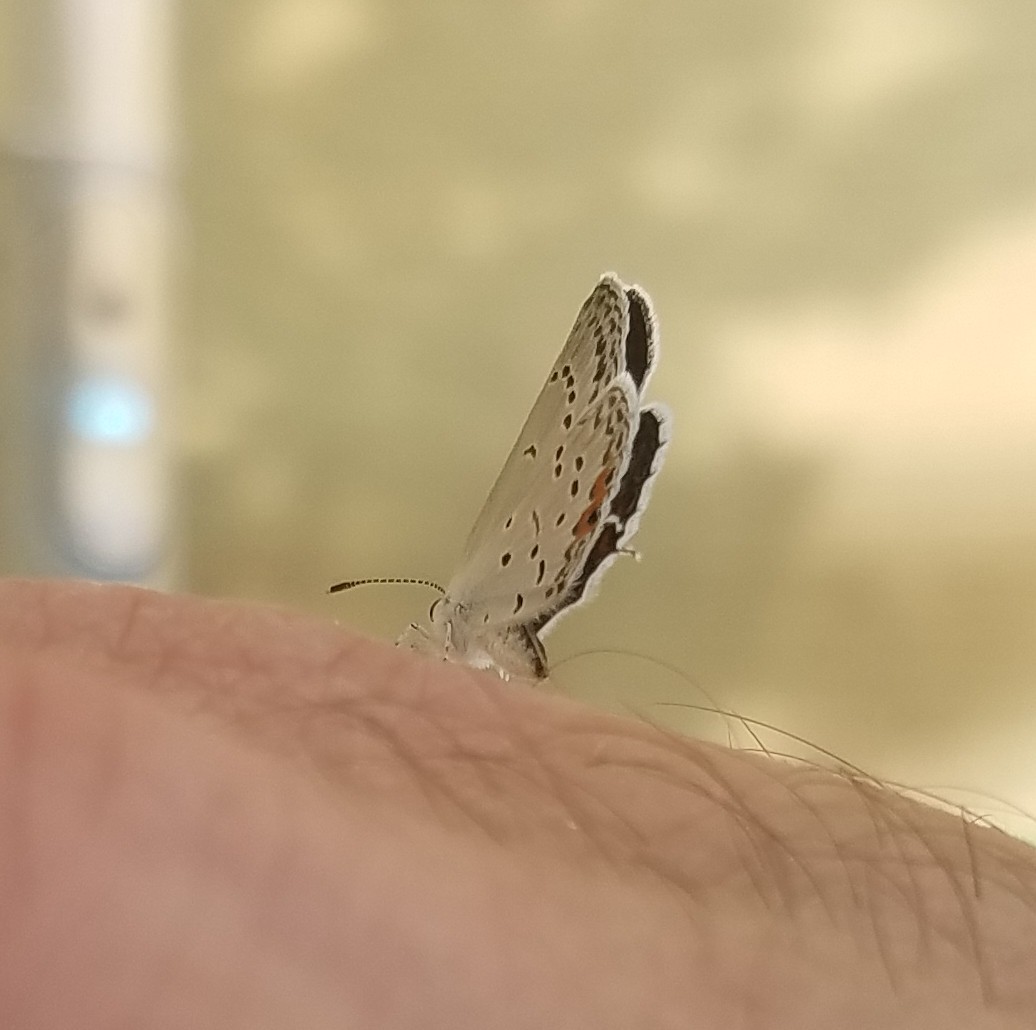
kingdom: Animalia
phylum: Arthropoda
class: Insecta
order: Lepidoptera
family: Lycaenidae
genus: Elkalyce
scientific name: Elkalyce comyntas
